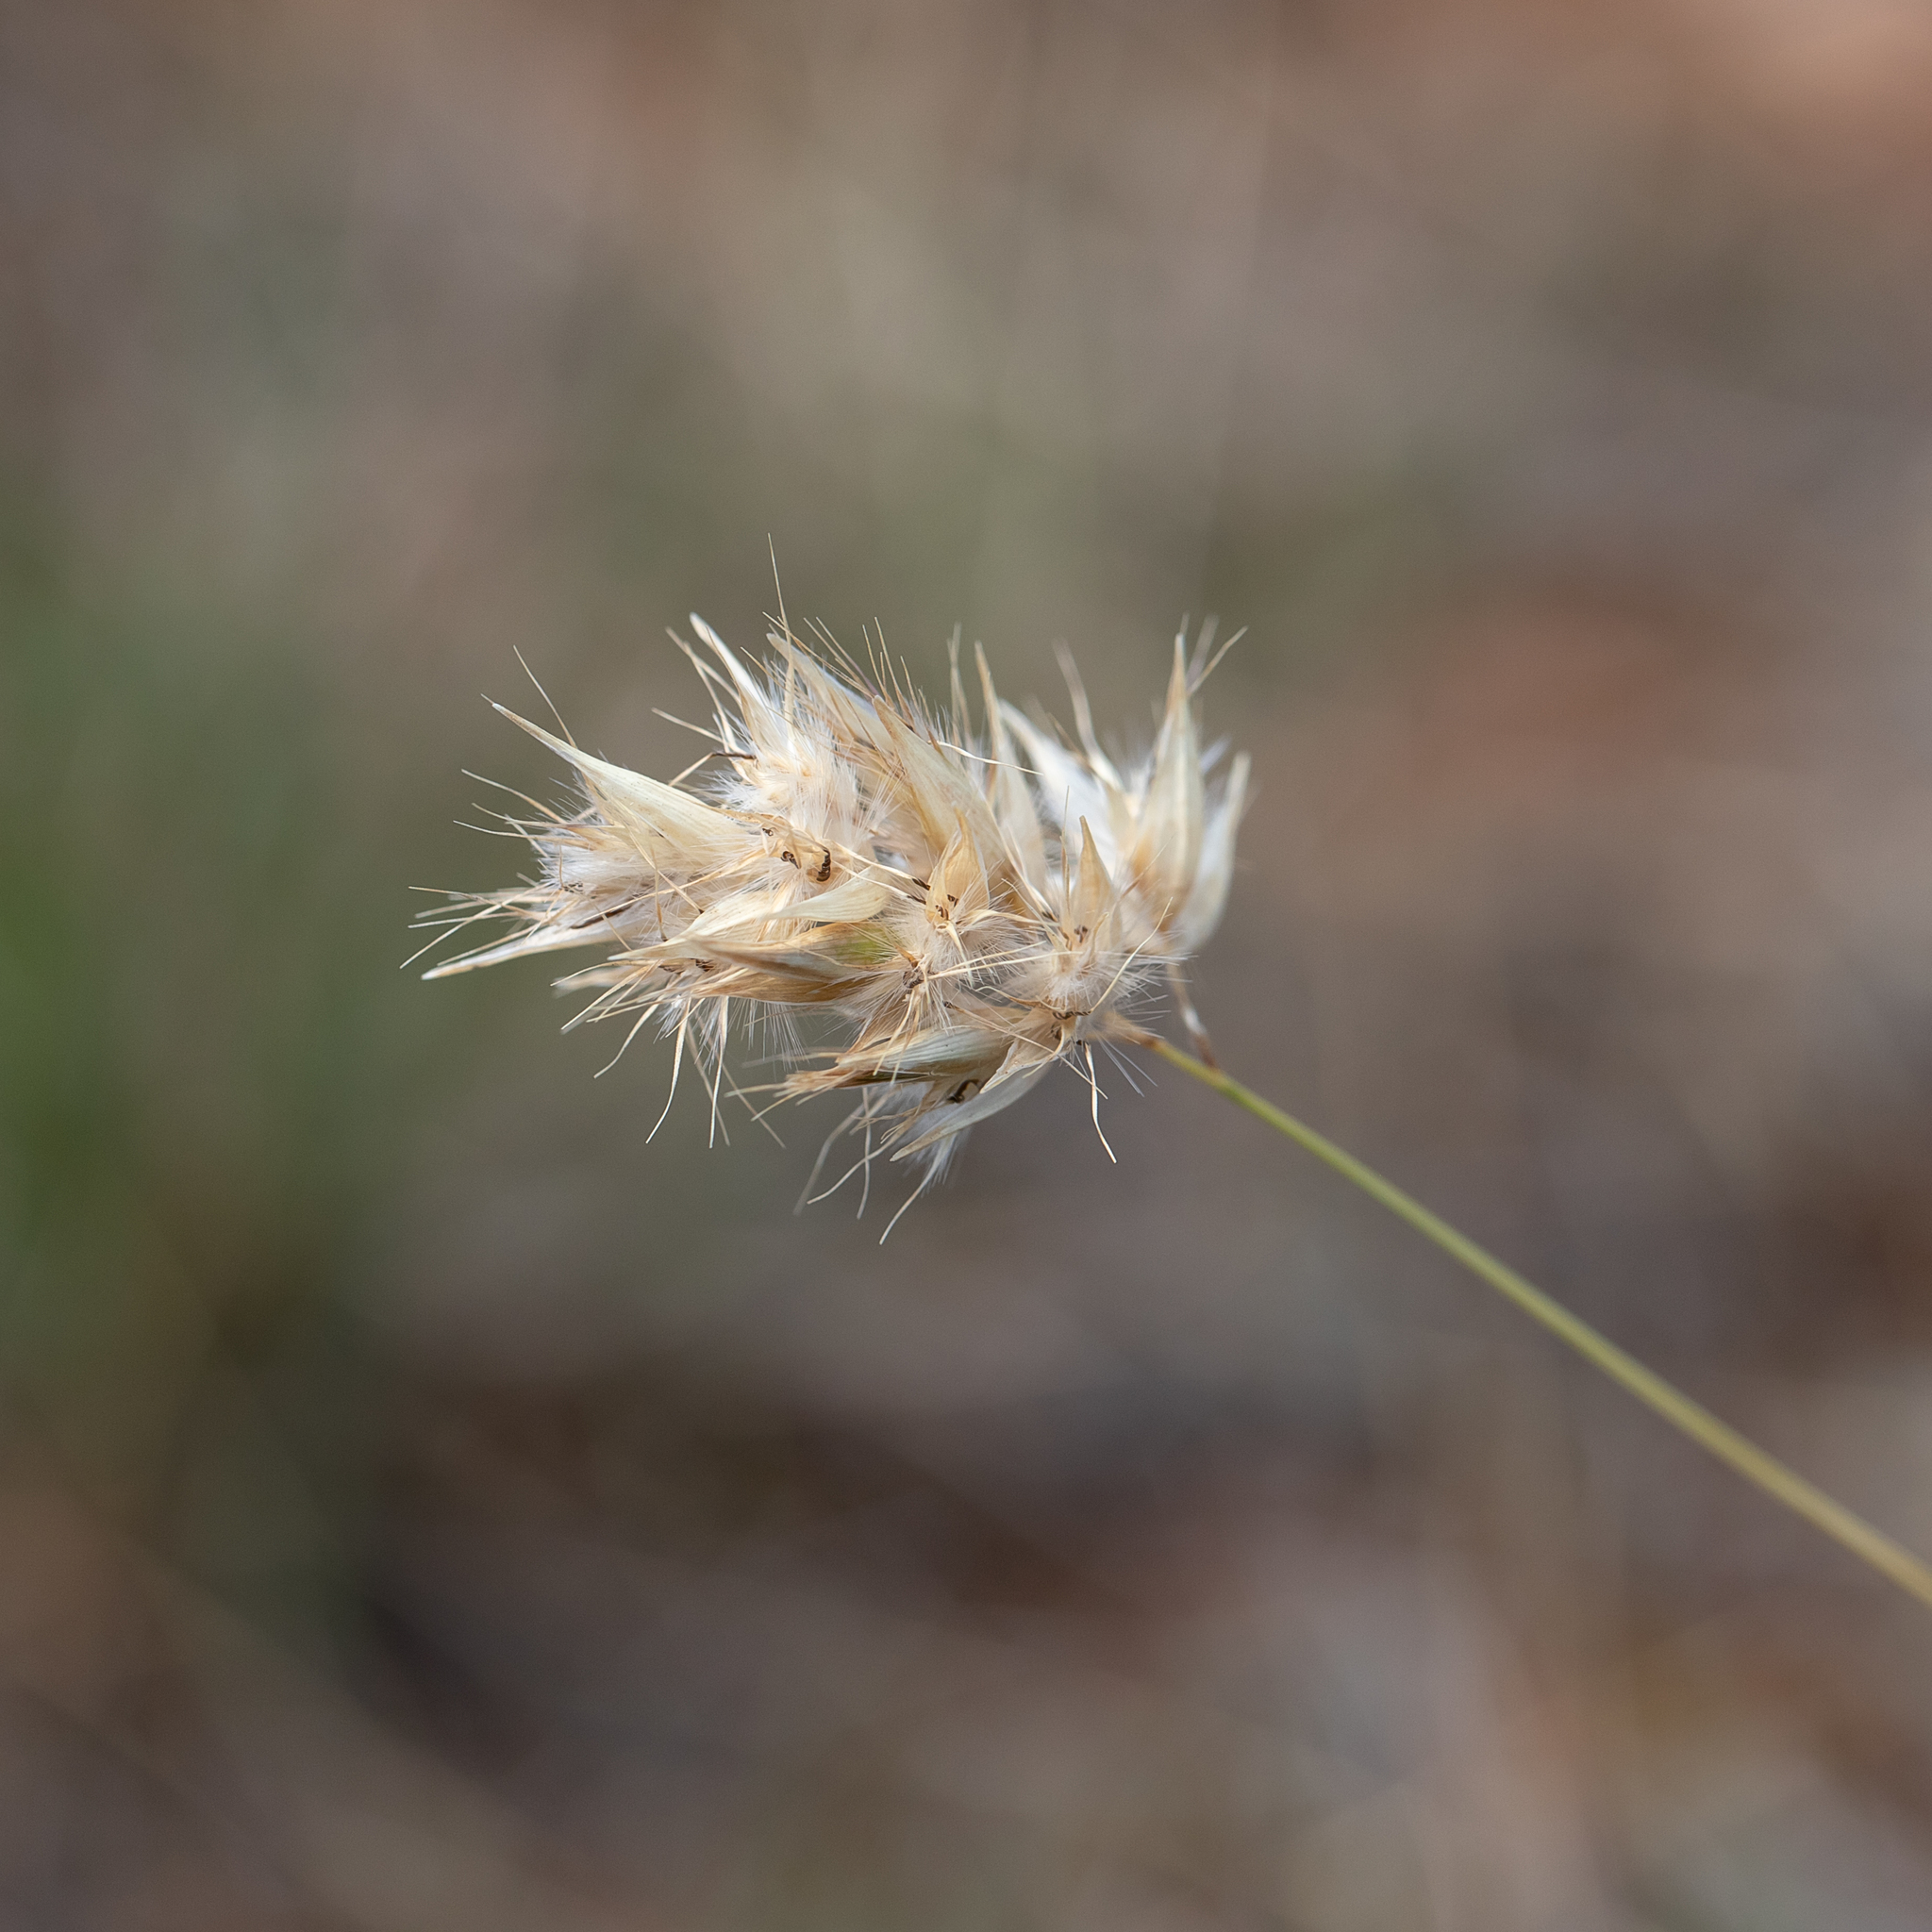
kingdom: Plantae
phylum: Tracheophyta
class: Liliopsida
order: Poales
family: Poaceae
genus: Rytidosperma
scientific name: Rytidosperma auriculatum
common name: Lobed wallaby grass
